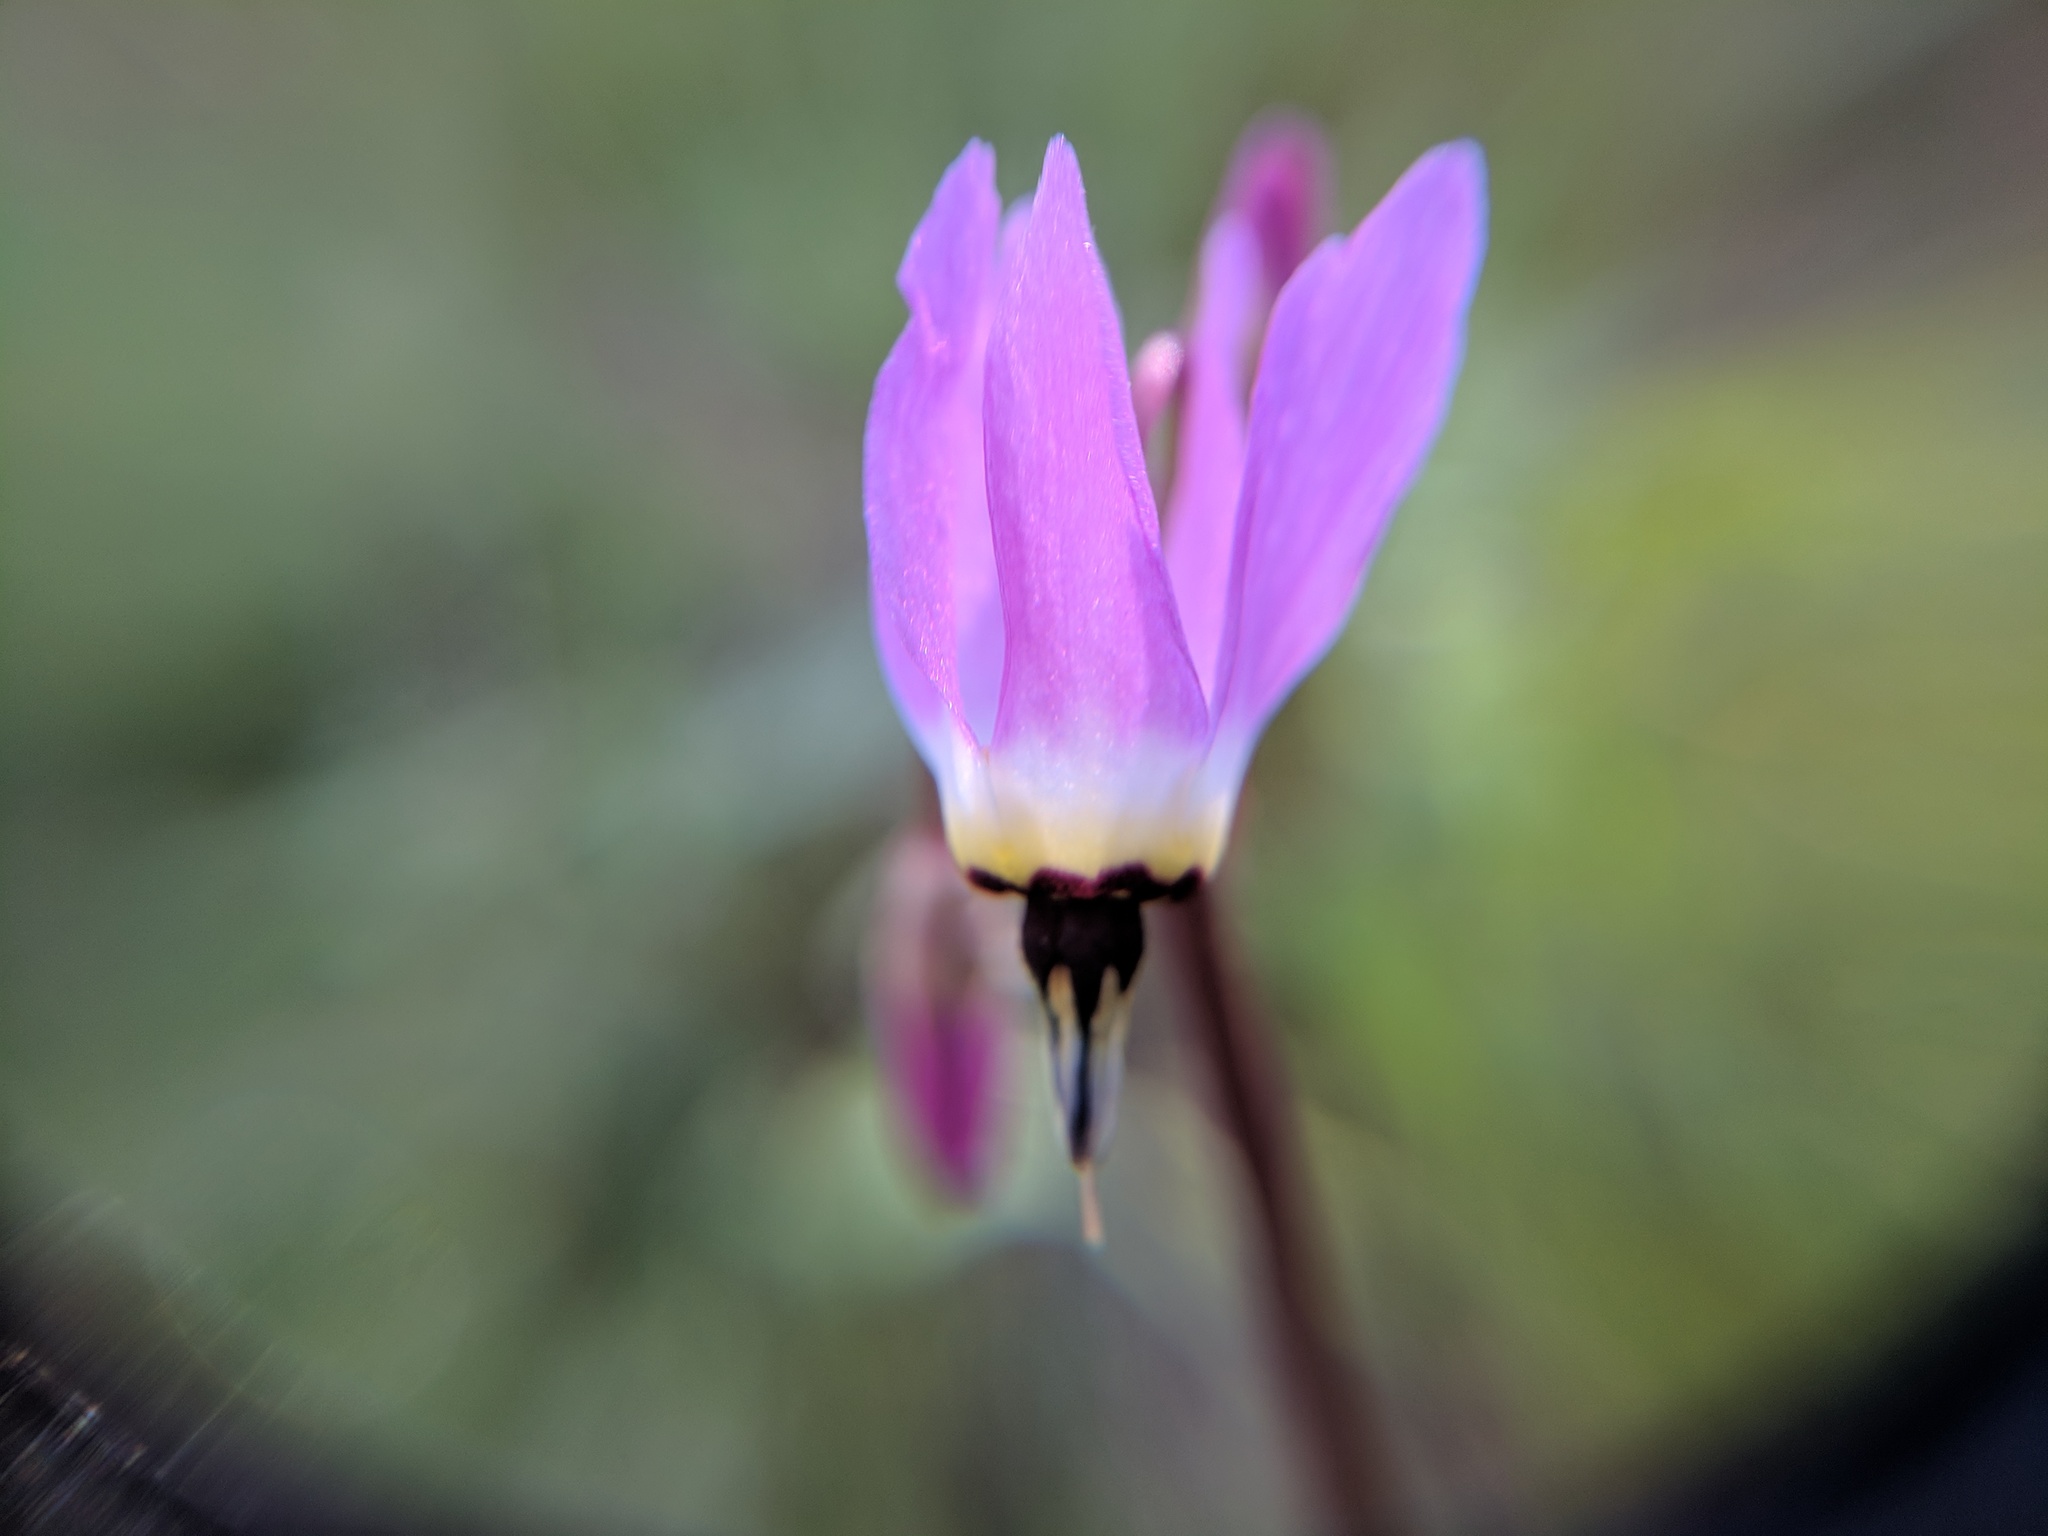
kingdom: Plantae
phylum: Tracheophyta
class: Magnoliopsida
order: Ericales
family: Primulaceae
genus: Dodecatheon
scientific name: Dodecatheon hendersonii
